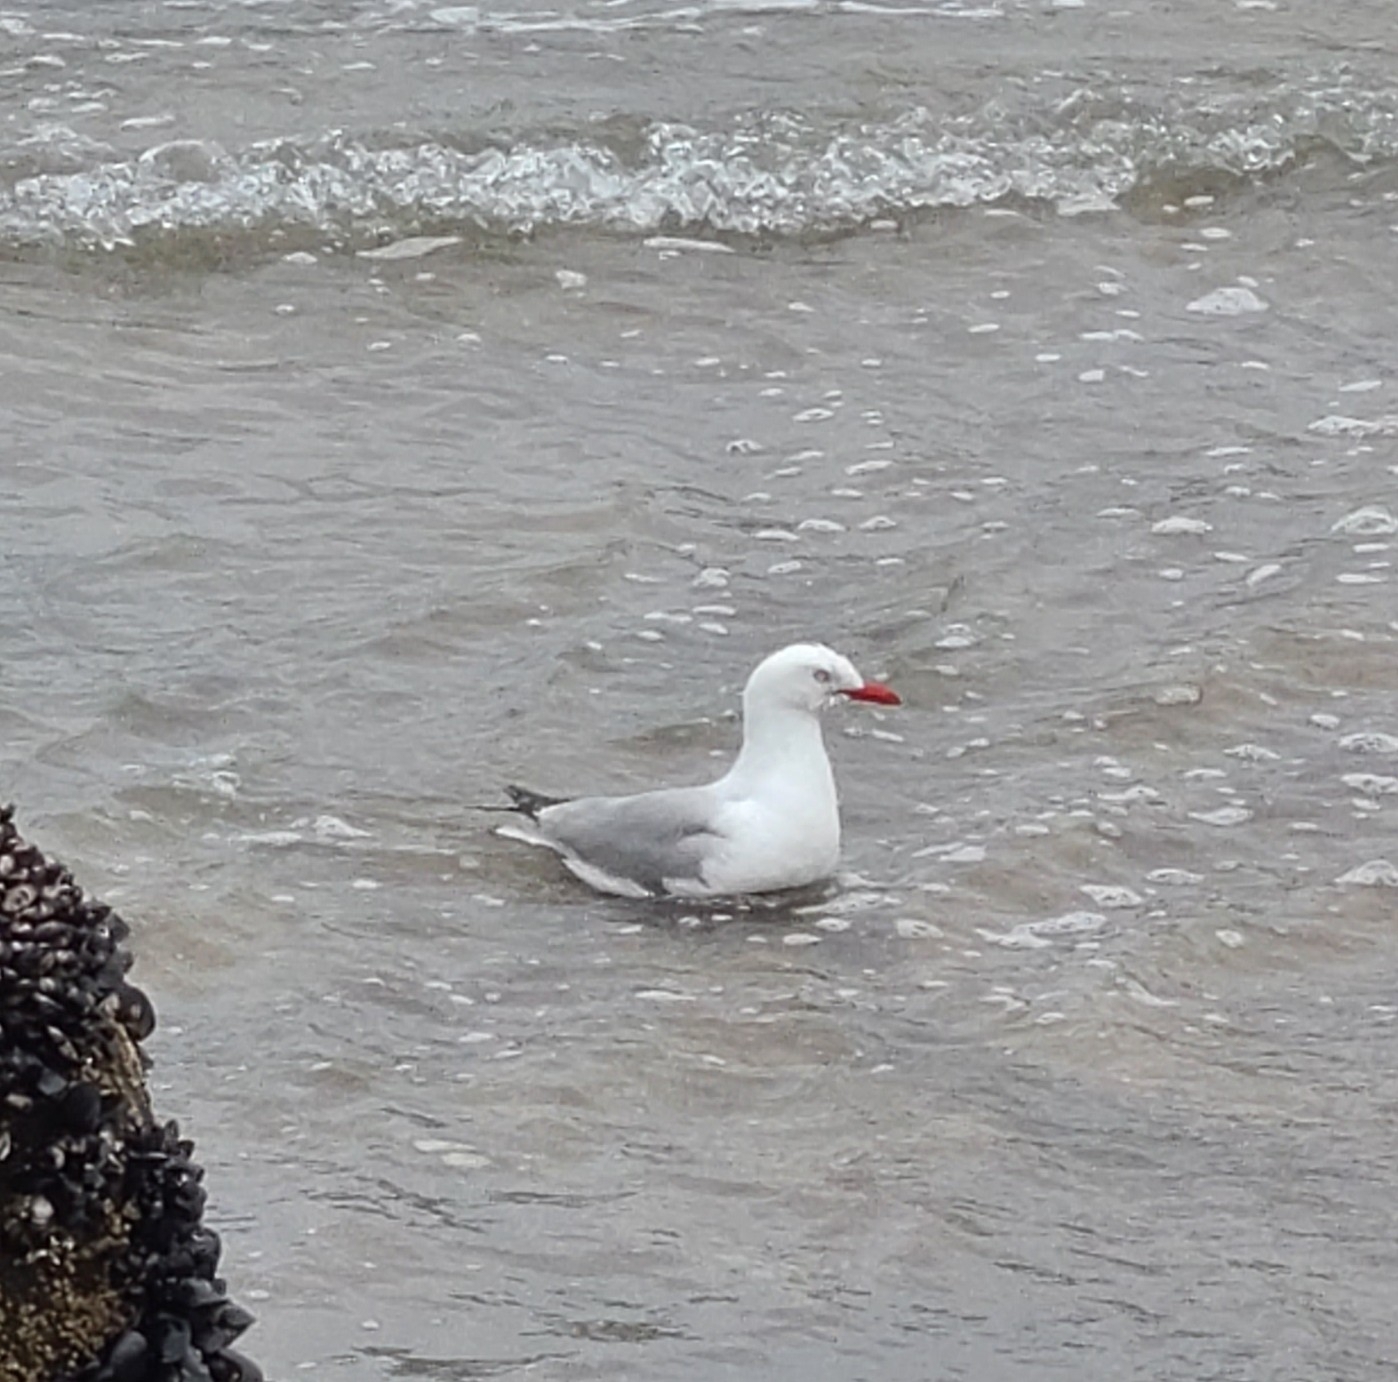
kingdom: Animalia
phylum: Chordata
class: Aves
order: Charadriiformes
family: Laridae
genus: Chroicocephalus
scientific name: Chroicocephalus novaehollandiae
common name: Silver gull
